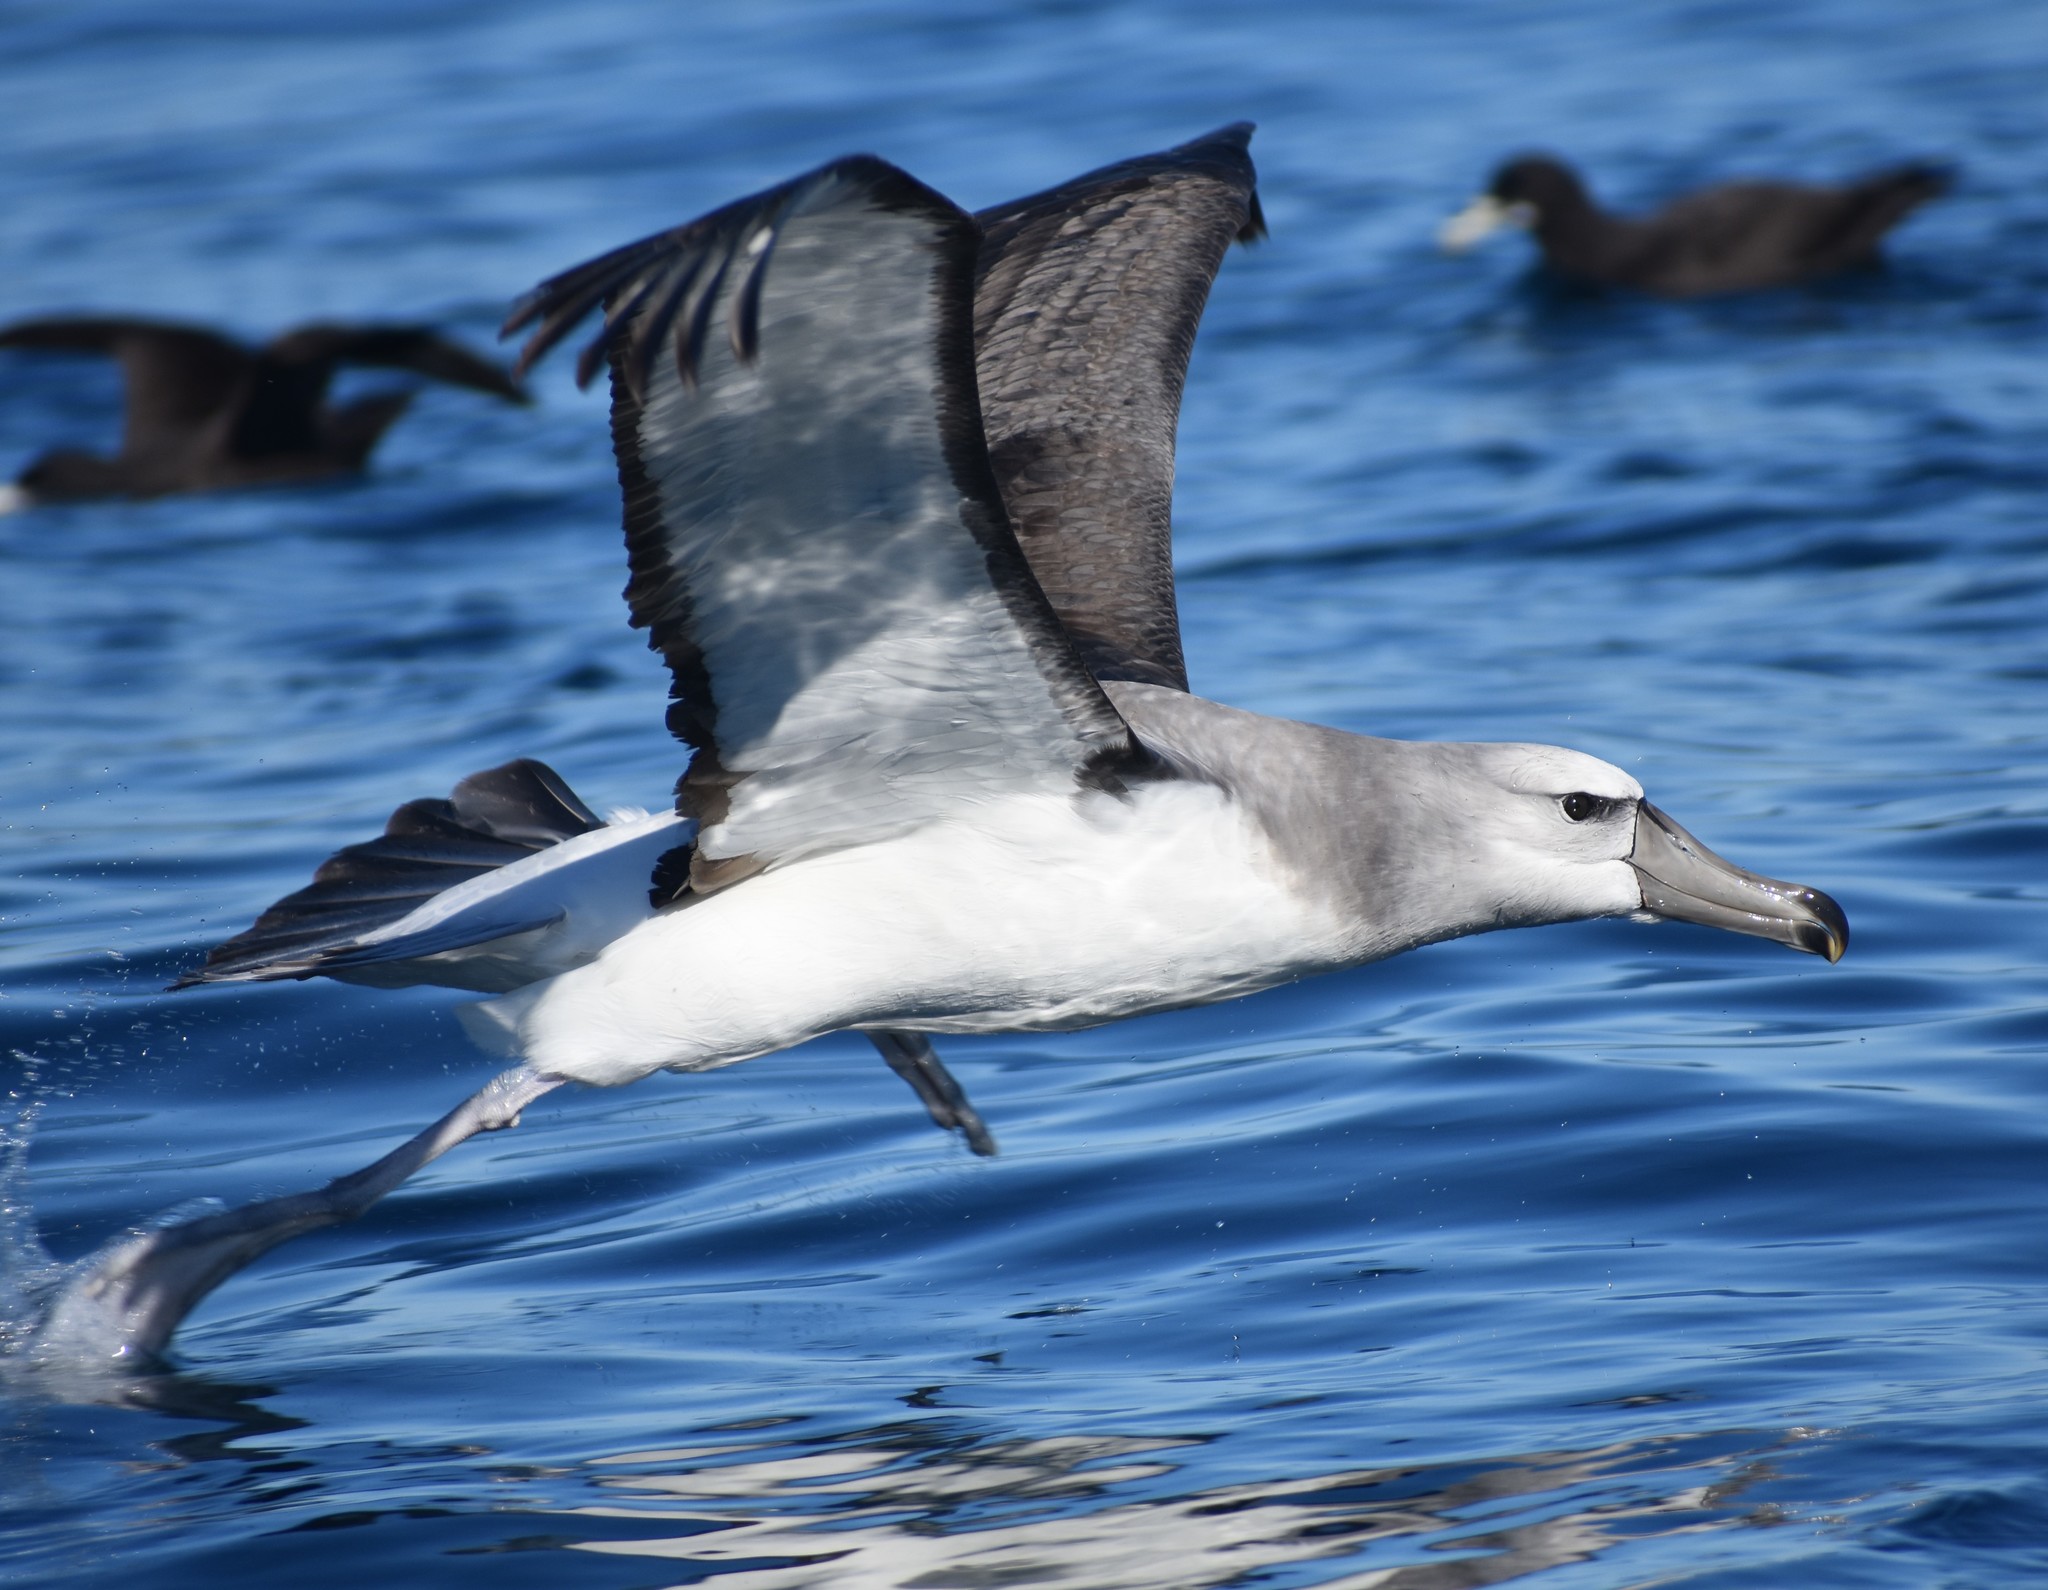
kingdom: Animalia
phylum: Chordata
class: Aves
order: Procellariiformes
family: Diomedeidae
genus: Thalassarche
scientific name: Thalassarche cauta
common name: Shy albatross
